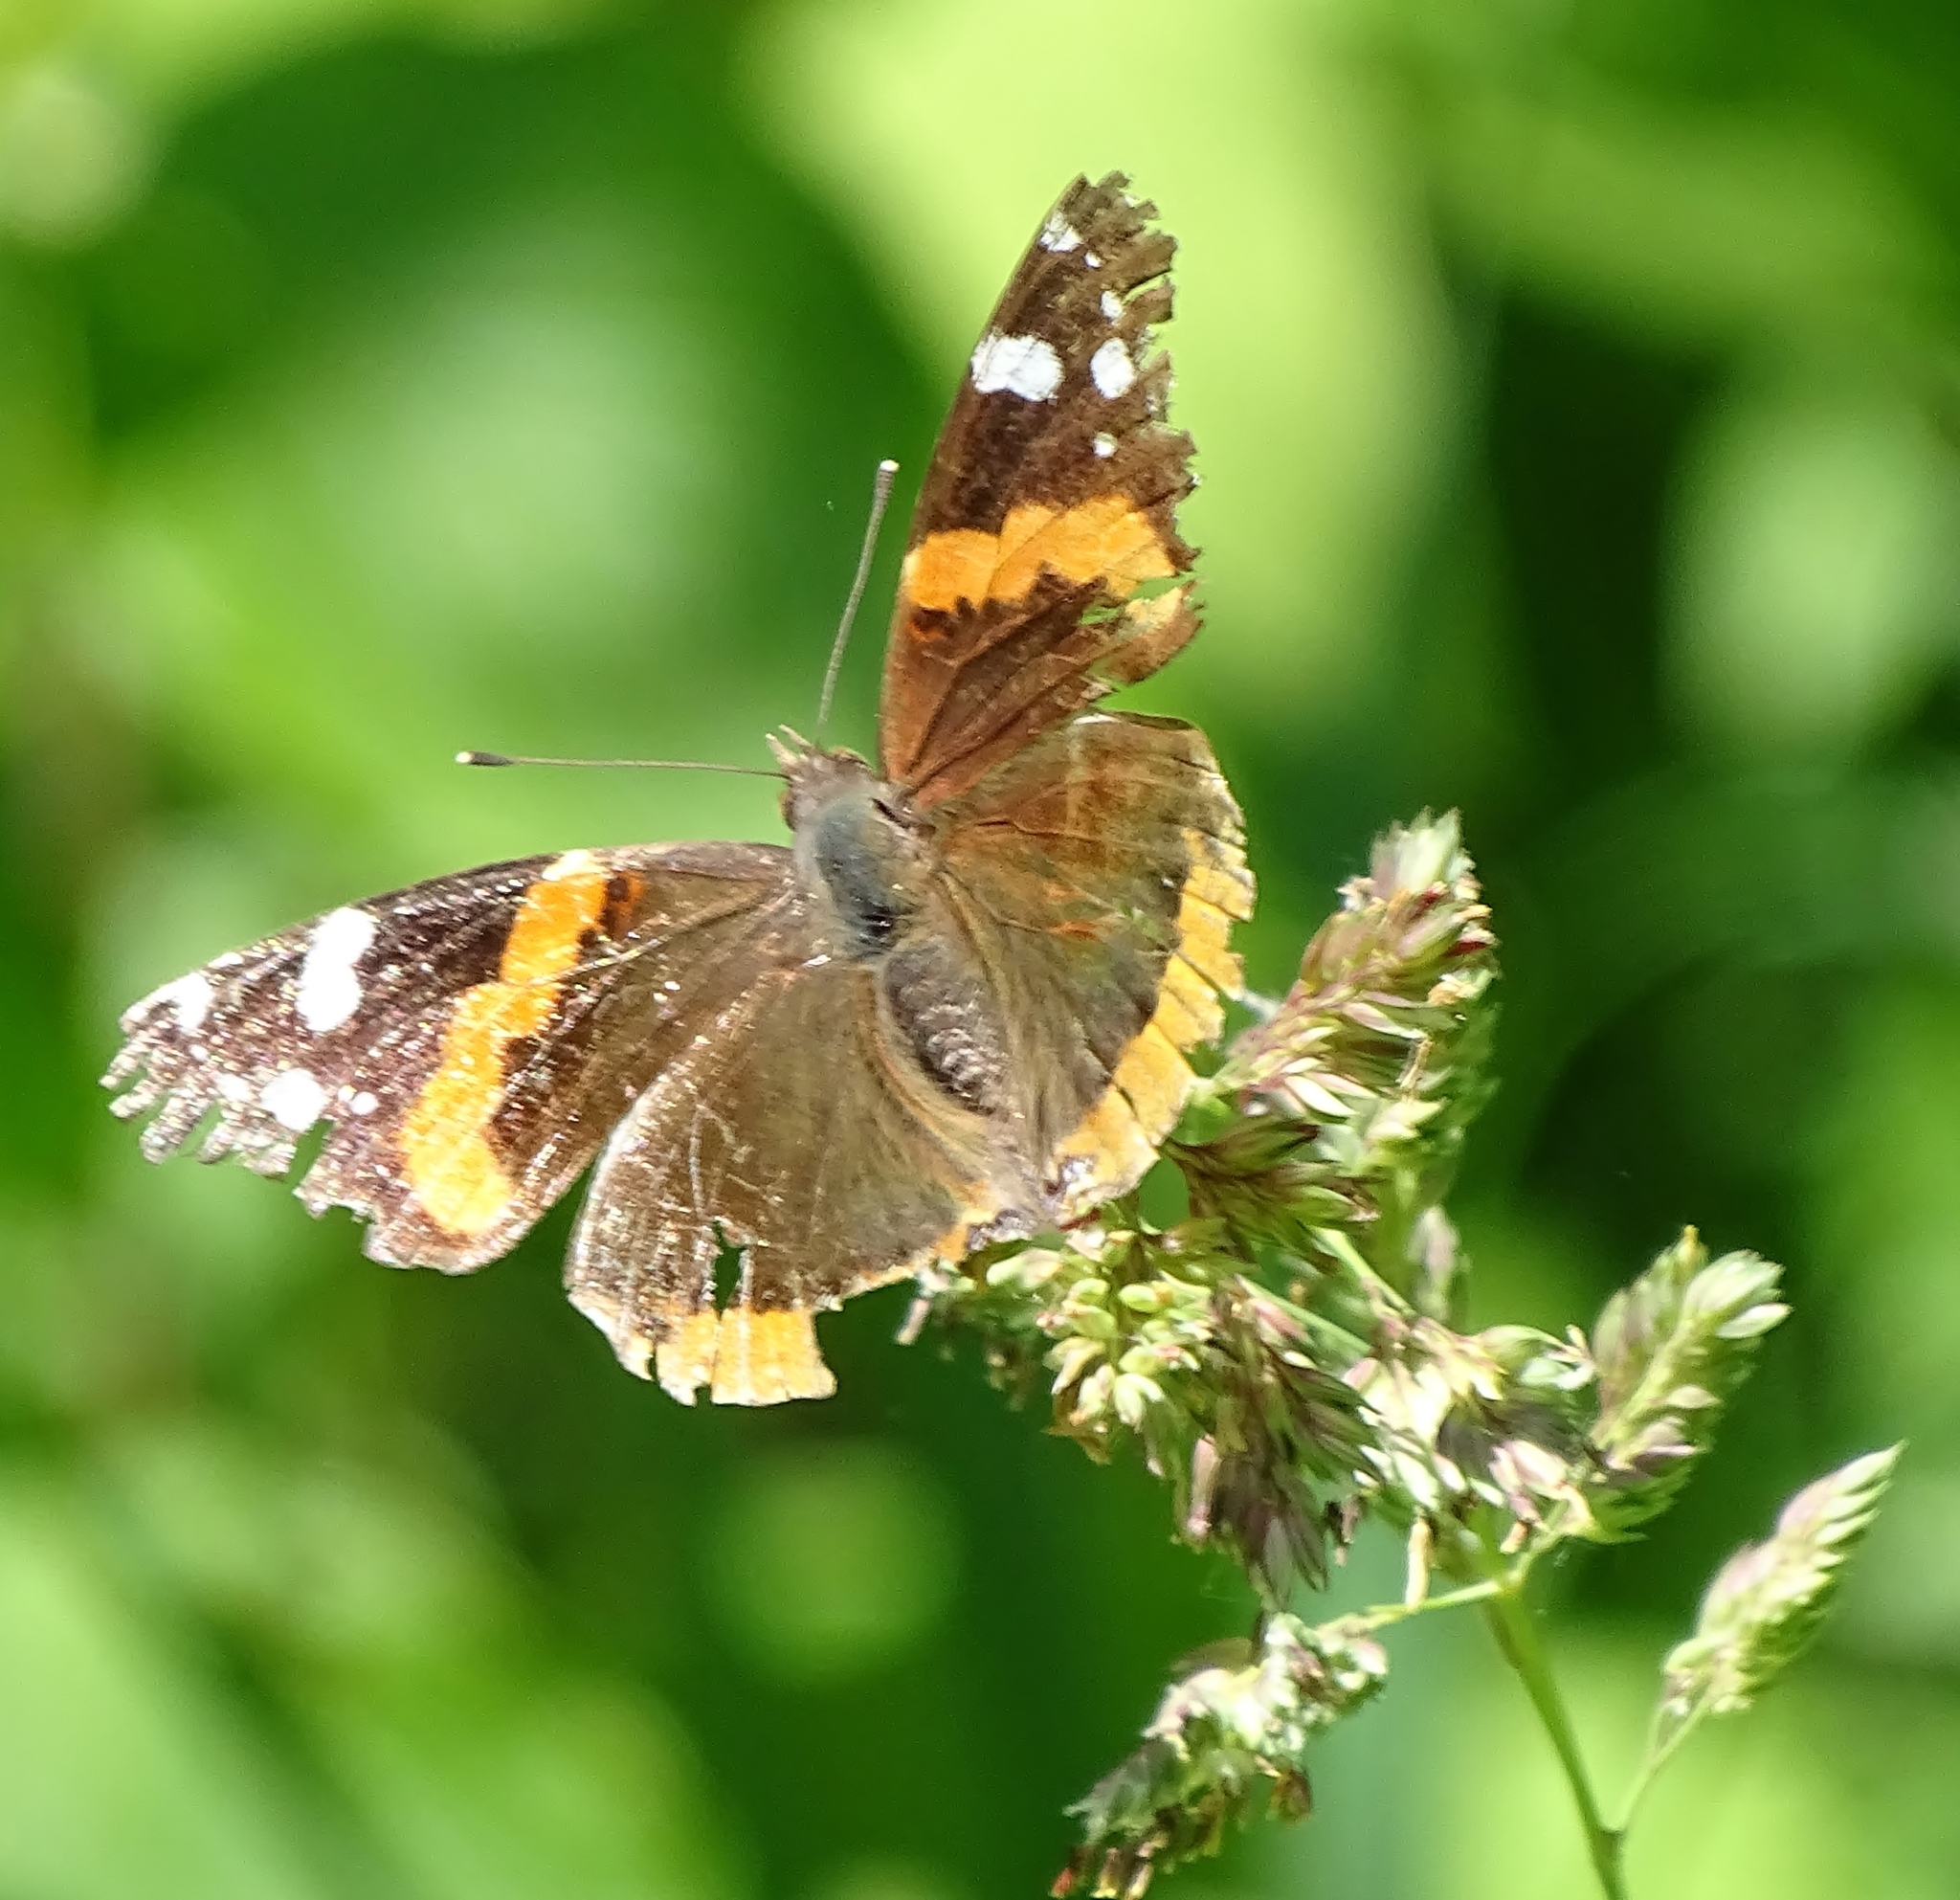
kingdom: Animalia
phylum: Arthropoda
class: Insecta
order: Lepidoptera
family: Nymphalidae
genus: Vanessa
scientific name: Vanessa atalanta
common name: Red admiral
